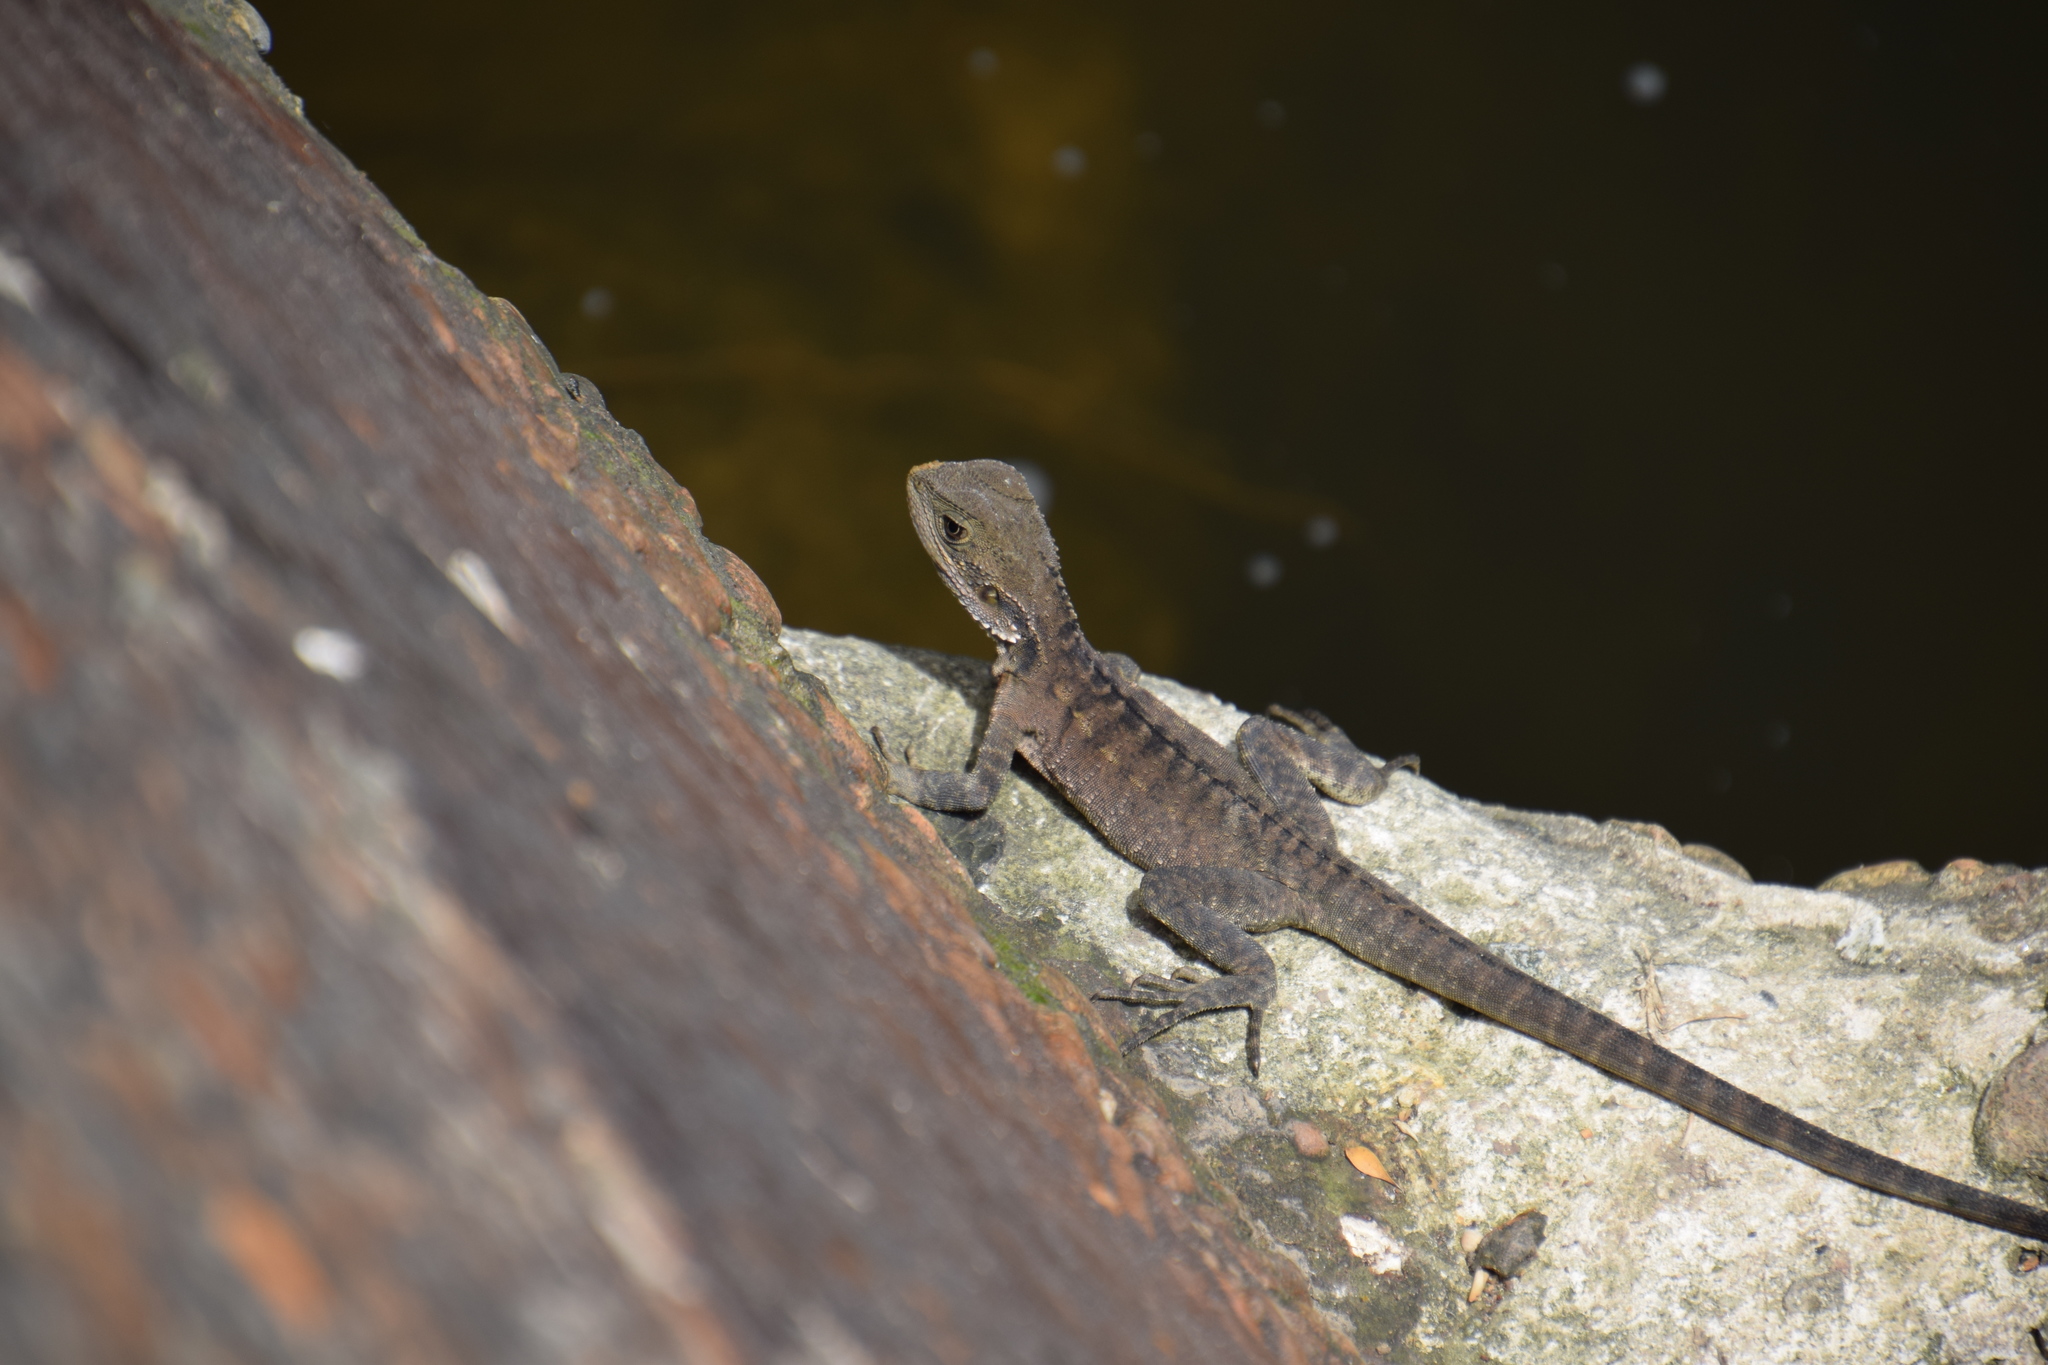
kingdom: Animalia
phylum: Chordata
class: Squamata
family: Agamidae
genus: Intellagama
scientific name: Intellagama lesueurii
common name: Eastern water dragon
